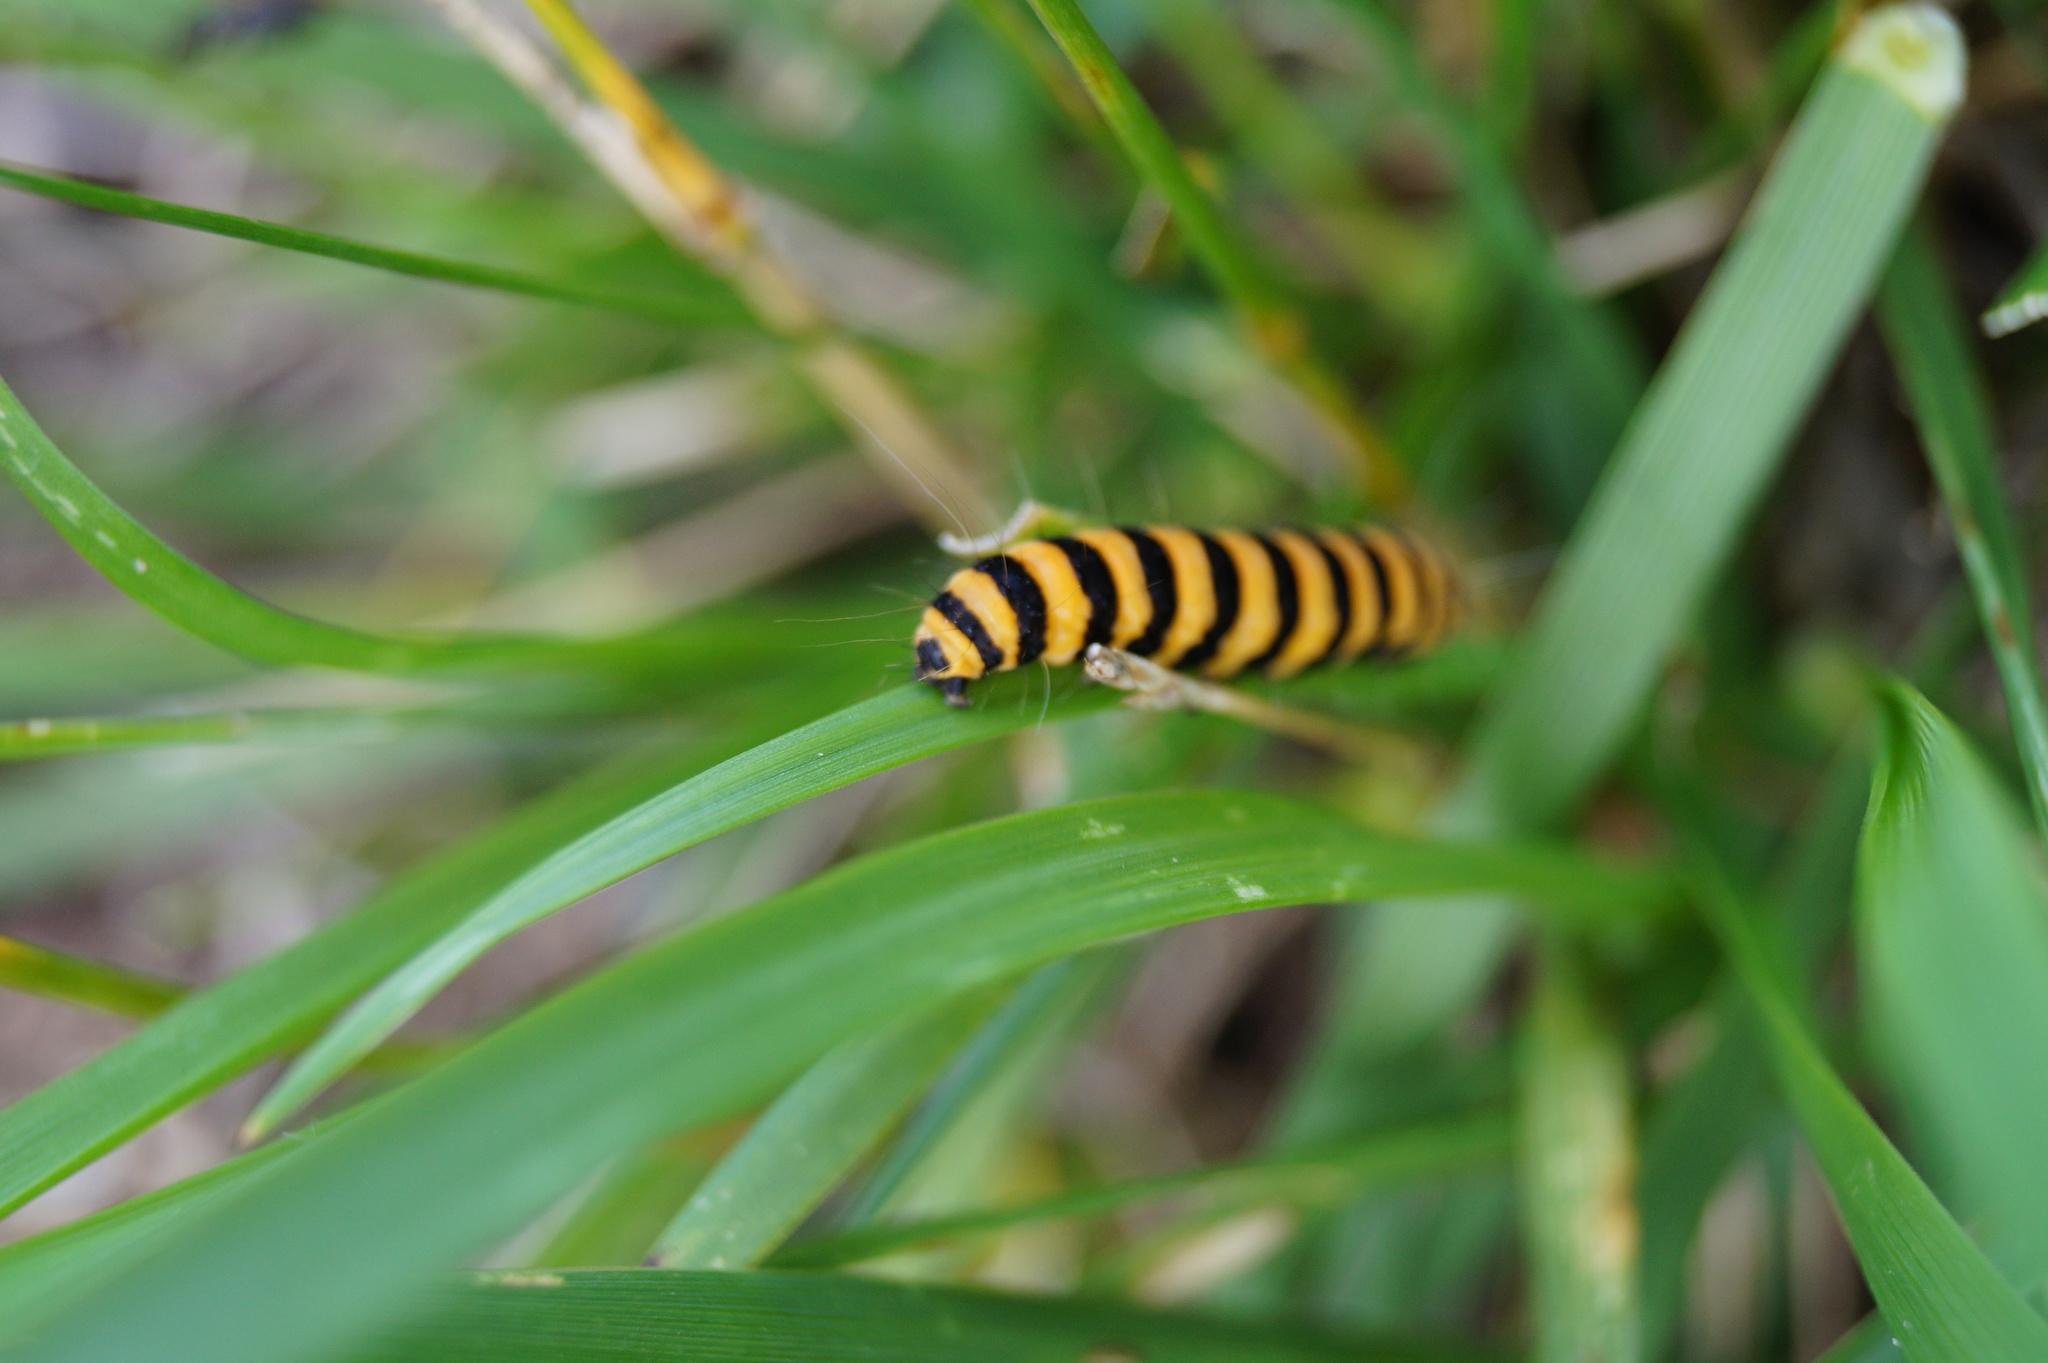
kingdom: Animalia
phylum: Arthropoda
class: Insecta
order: Lepidoptera
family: Erebidae
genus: Tyria
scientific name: Tyria jacobaeae
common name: Cinnabar
